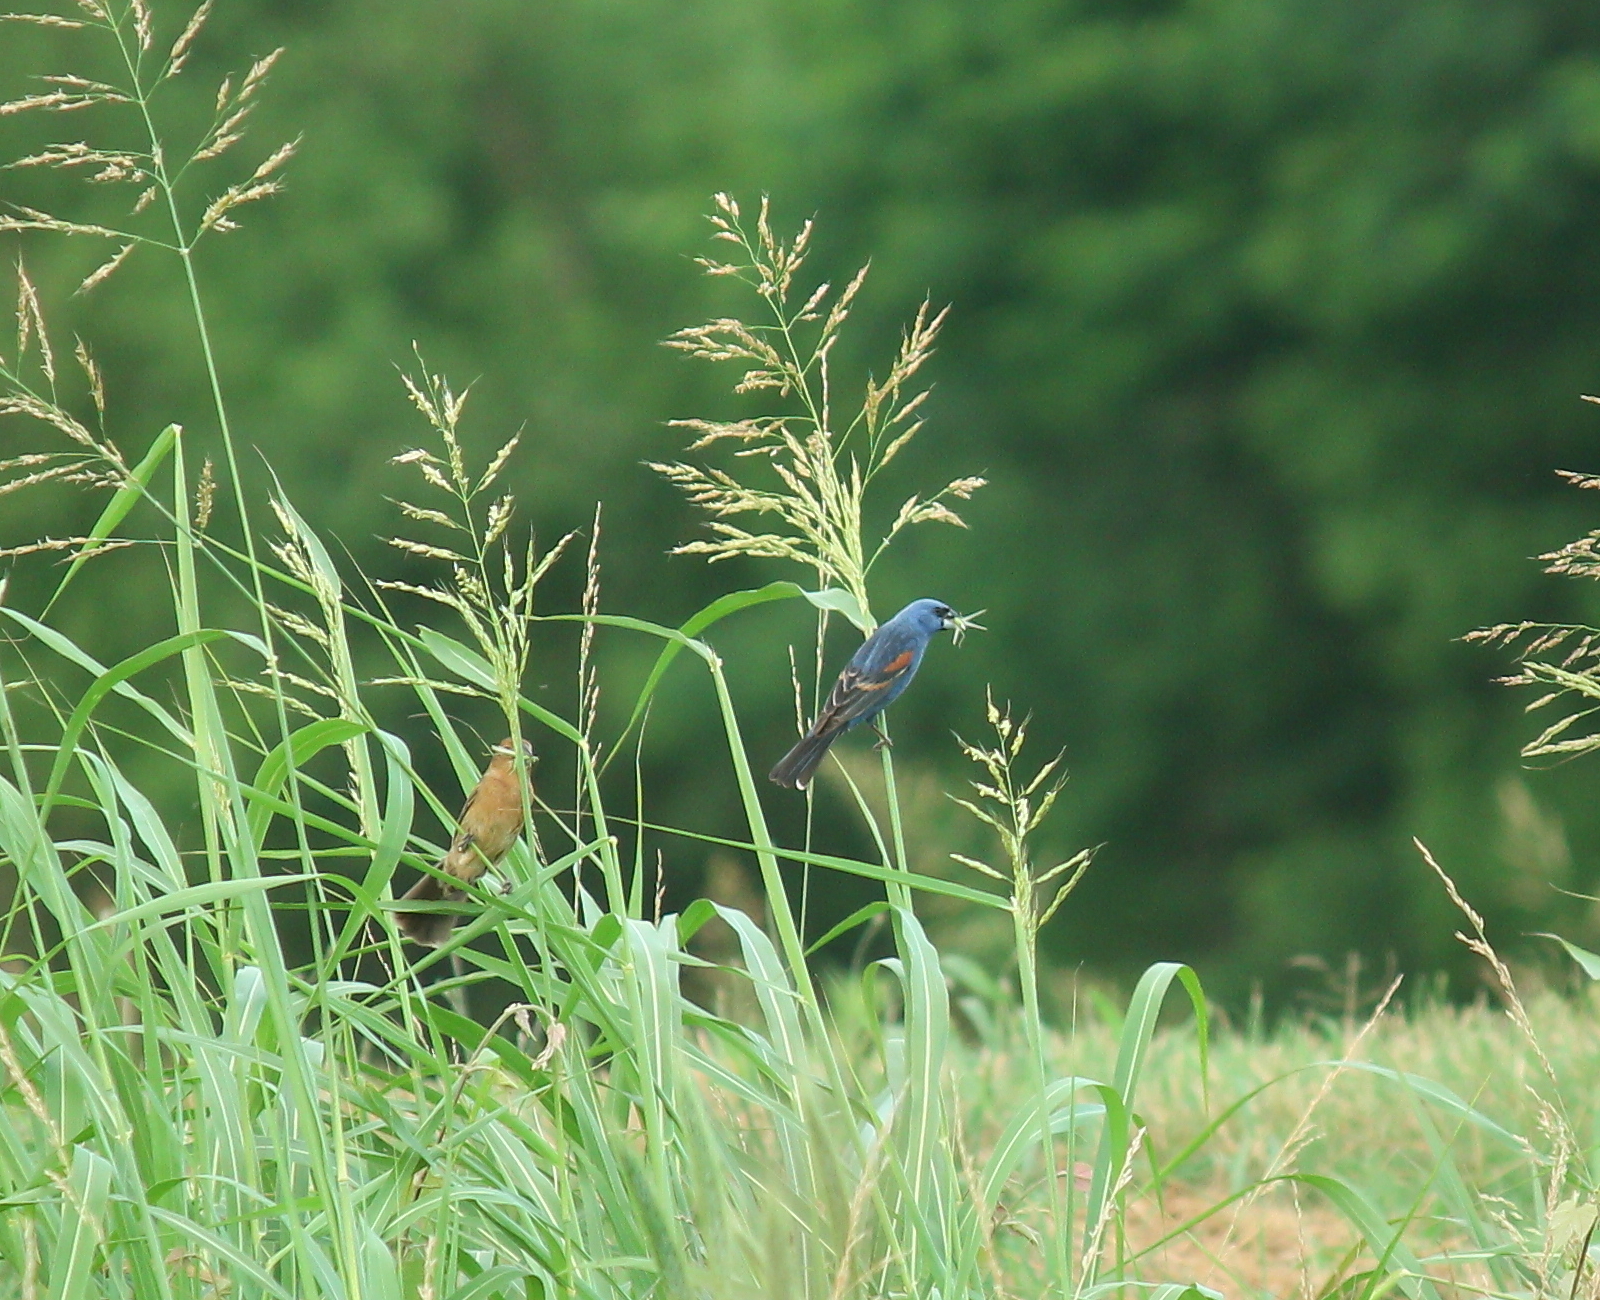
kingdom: Animalia
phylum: Chordata
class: Aves
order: Passeriformes
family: Cardinalidae
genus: Passerina
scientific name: Passerina caerulea
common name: Blue grosbeak
